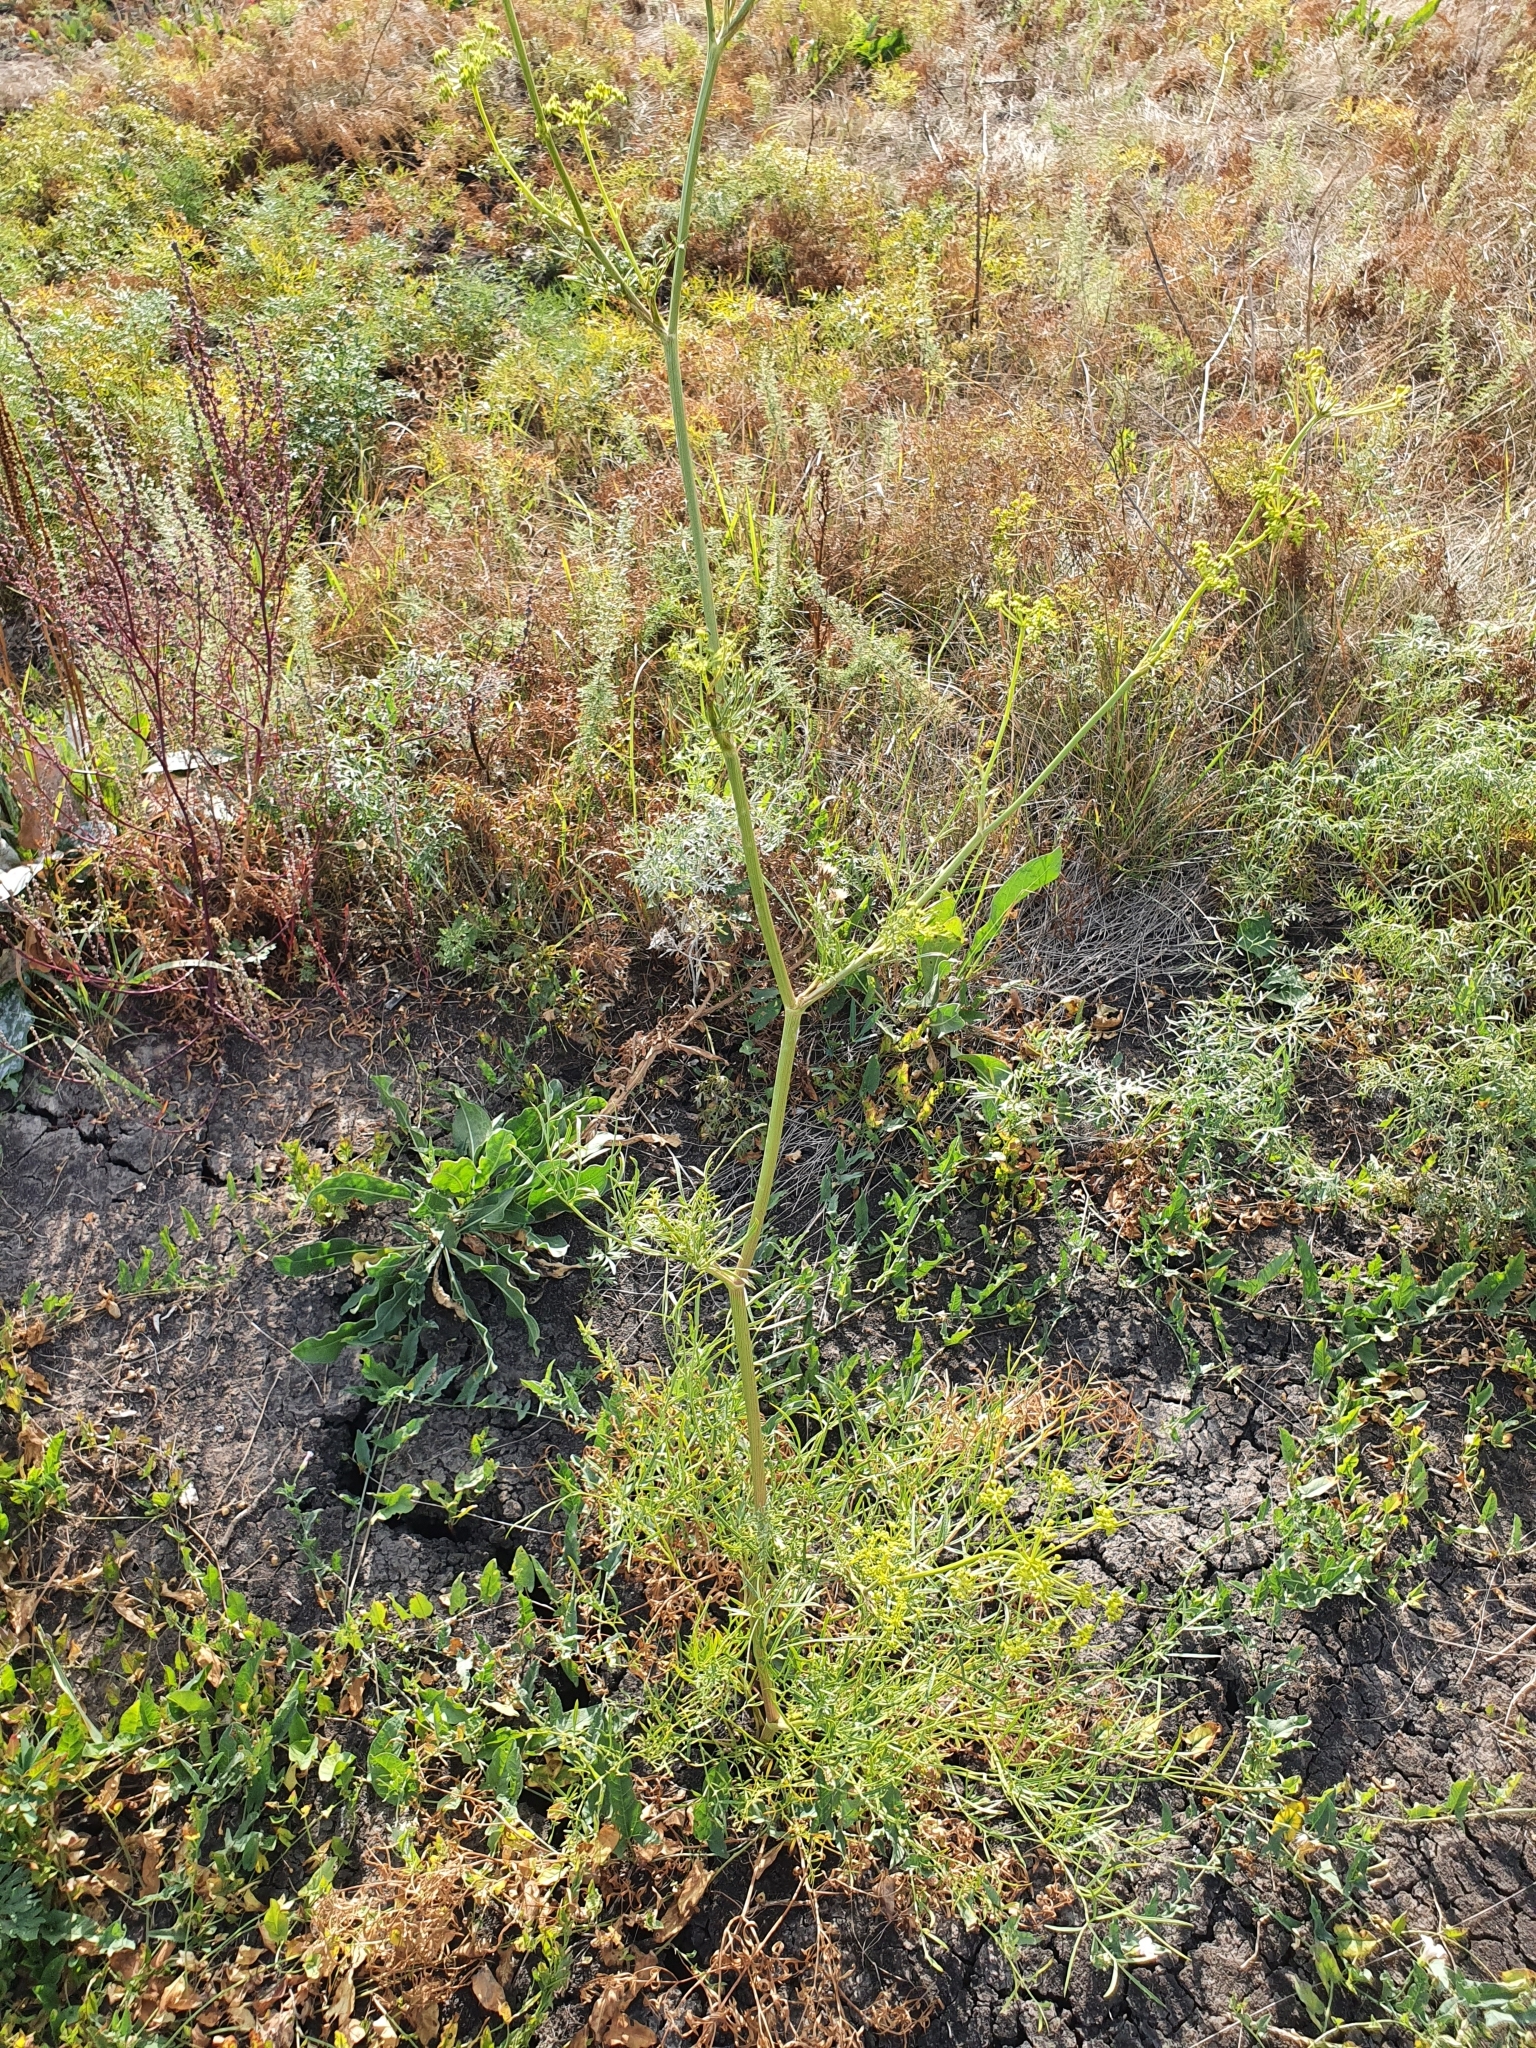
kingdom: Plantae
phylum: Tracheophyta
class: Magnoliopsida
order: Apiales
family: Apiaceae
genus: Silaum
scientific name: Silaum silaus
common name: Pepper-saxifrage
